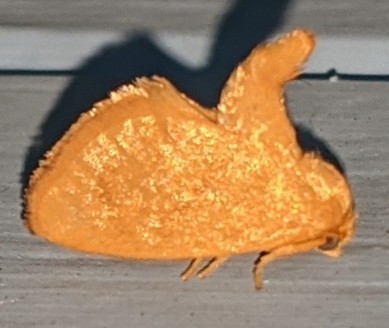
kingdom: Animalia
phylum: Arthropoda
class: Insecta
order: Lepidoptera
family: Limacodidae
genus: Tortricidia
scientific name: Tortricidia pallida
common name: Red-crossed button slug moth
